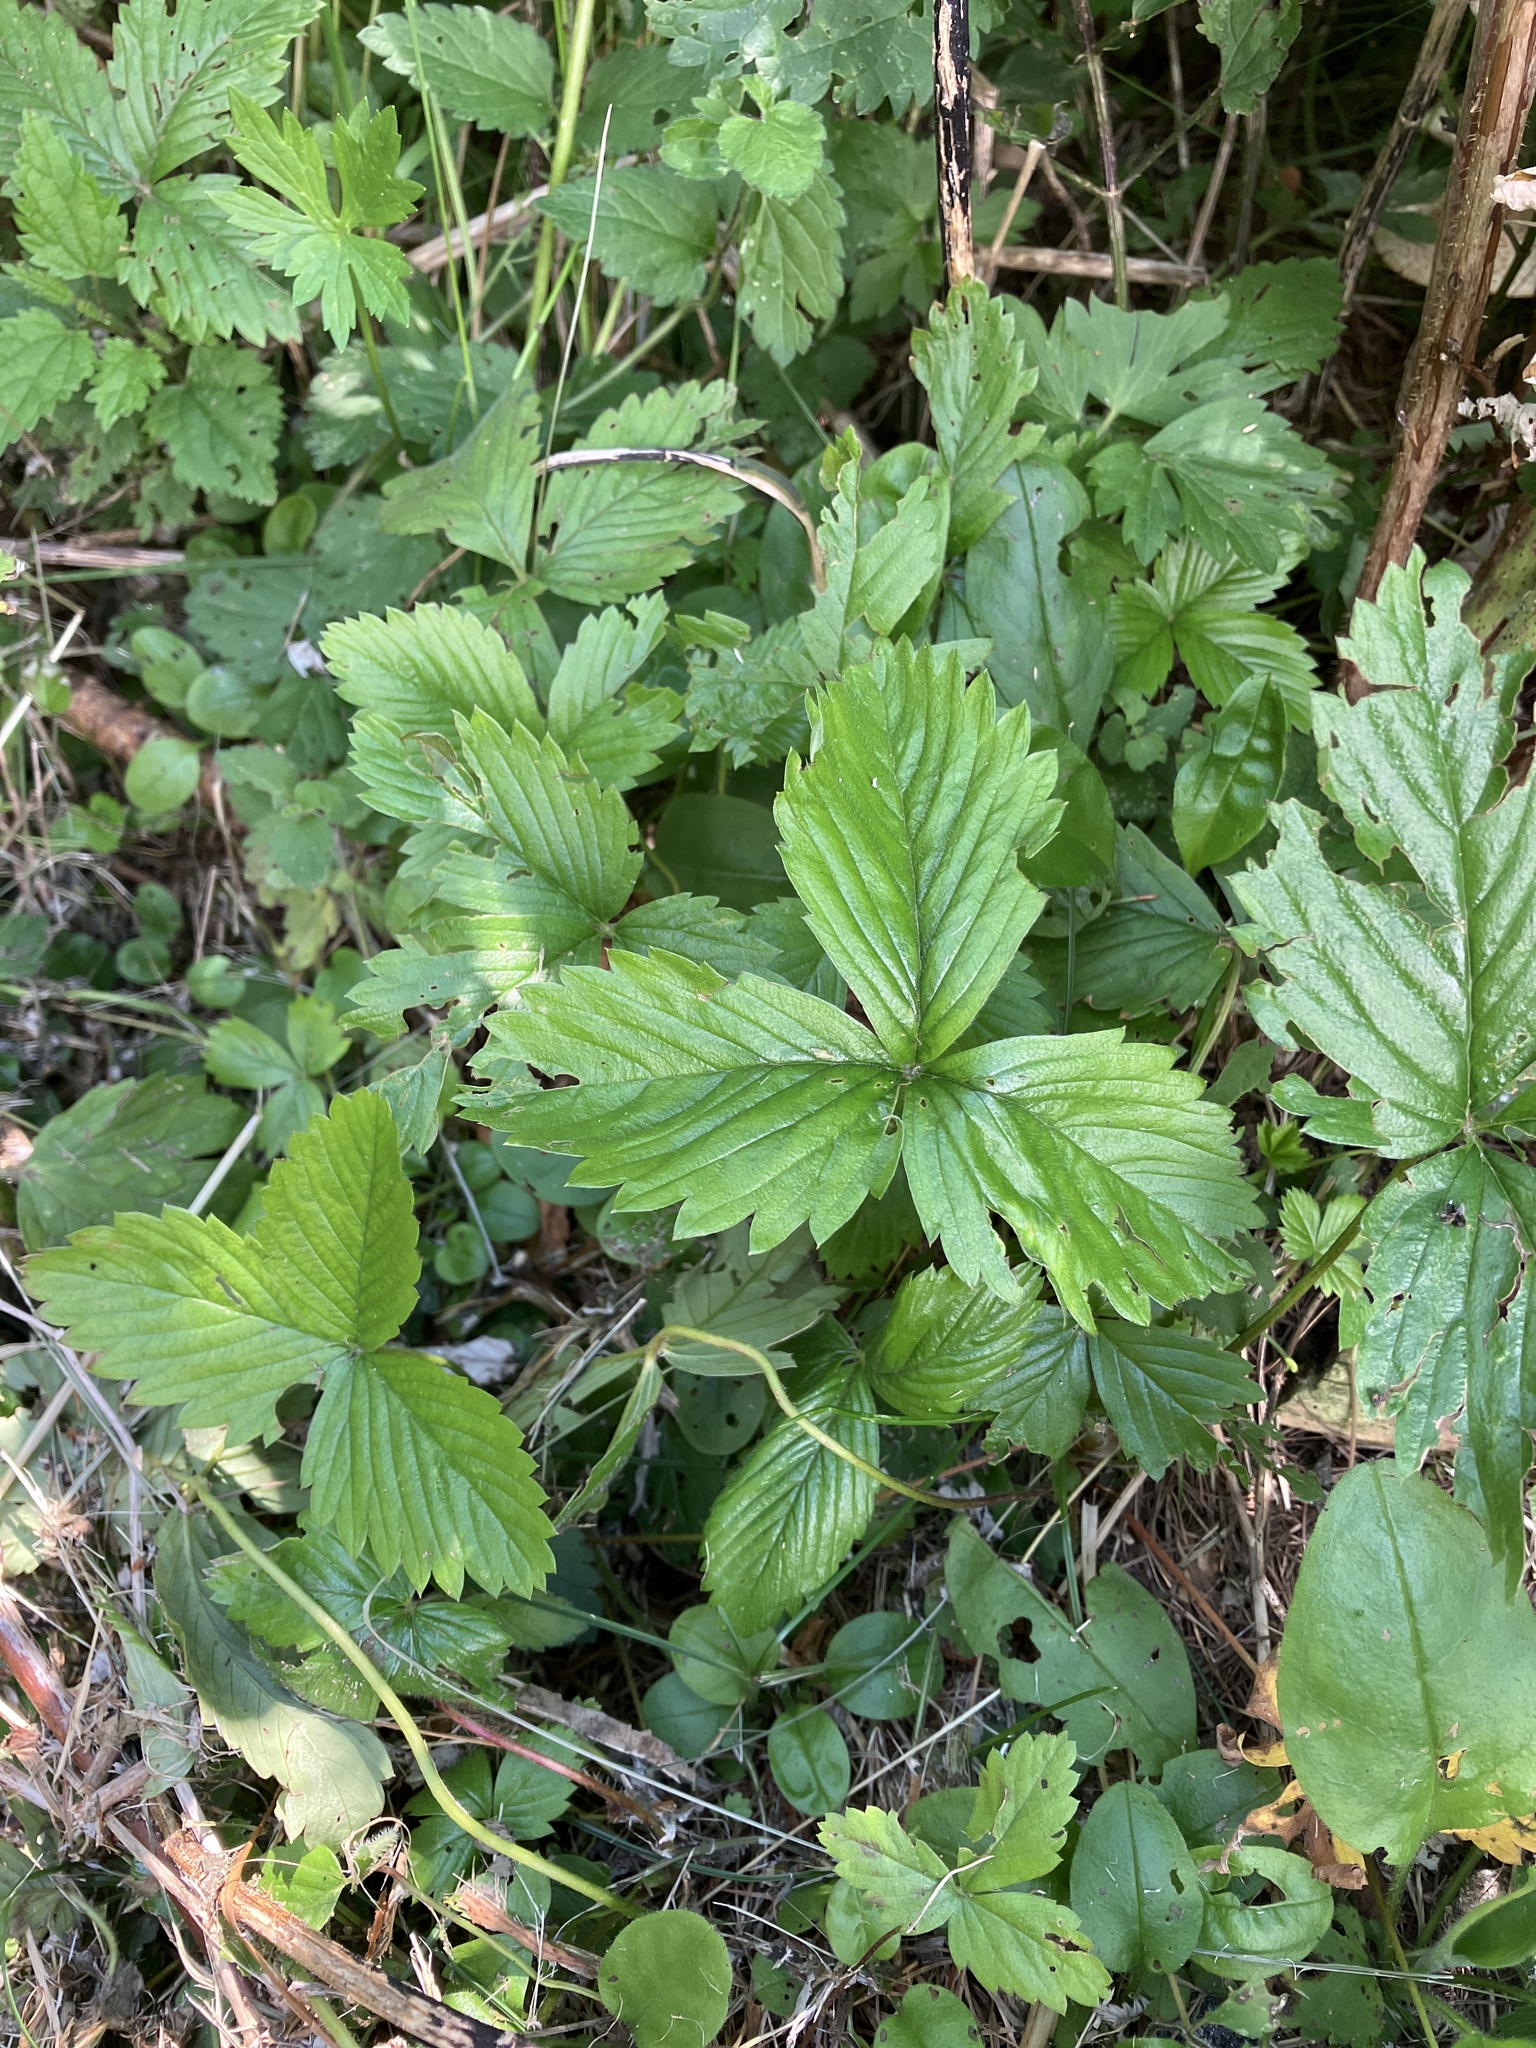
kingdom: Plantae
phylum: Tracheophyta
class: Magnoliopsida
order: Rosales
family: Rosaceae
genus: Fragaria
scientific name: Fragaria vesca
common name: Wild strawberry
